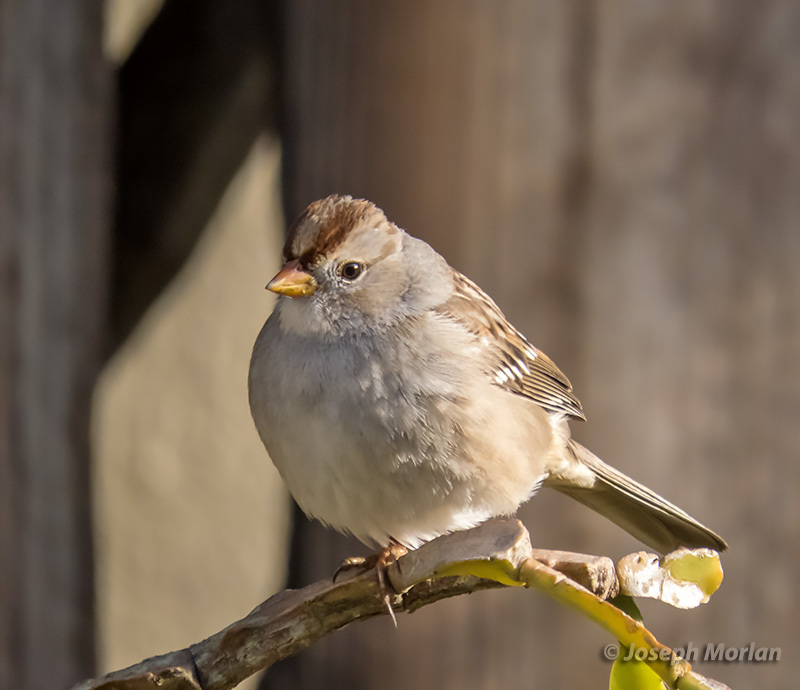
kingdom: Animalia
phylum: Chordata
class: Aves
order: Passeriformes
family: Passerellidae
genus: Zonotrichia
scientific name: Zonotrichia leucophrys
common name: White-crowned sparrow
